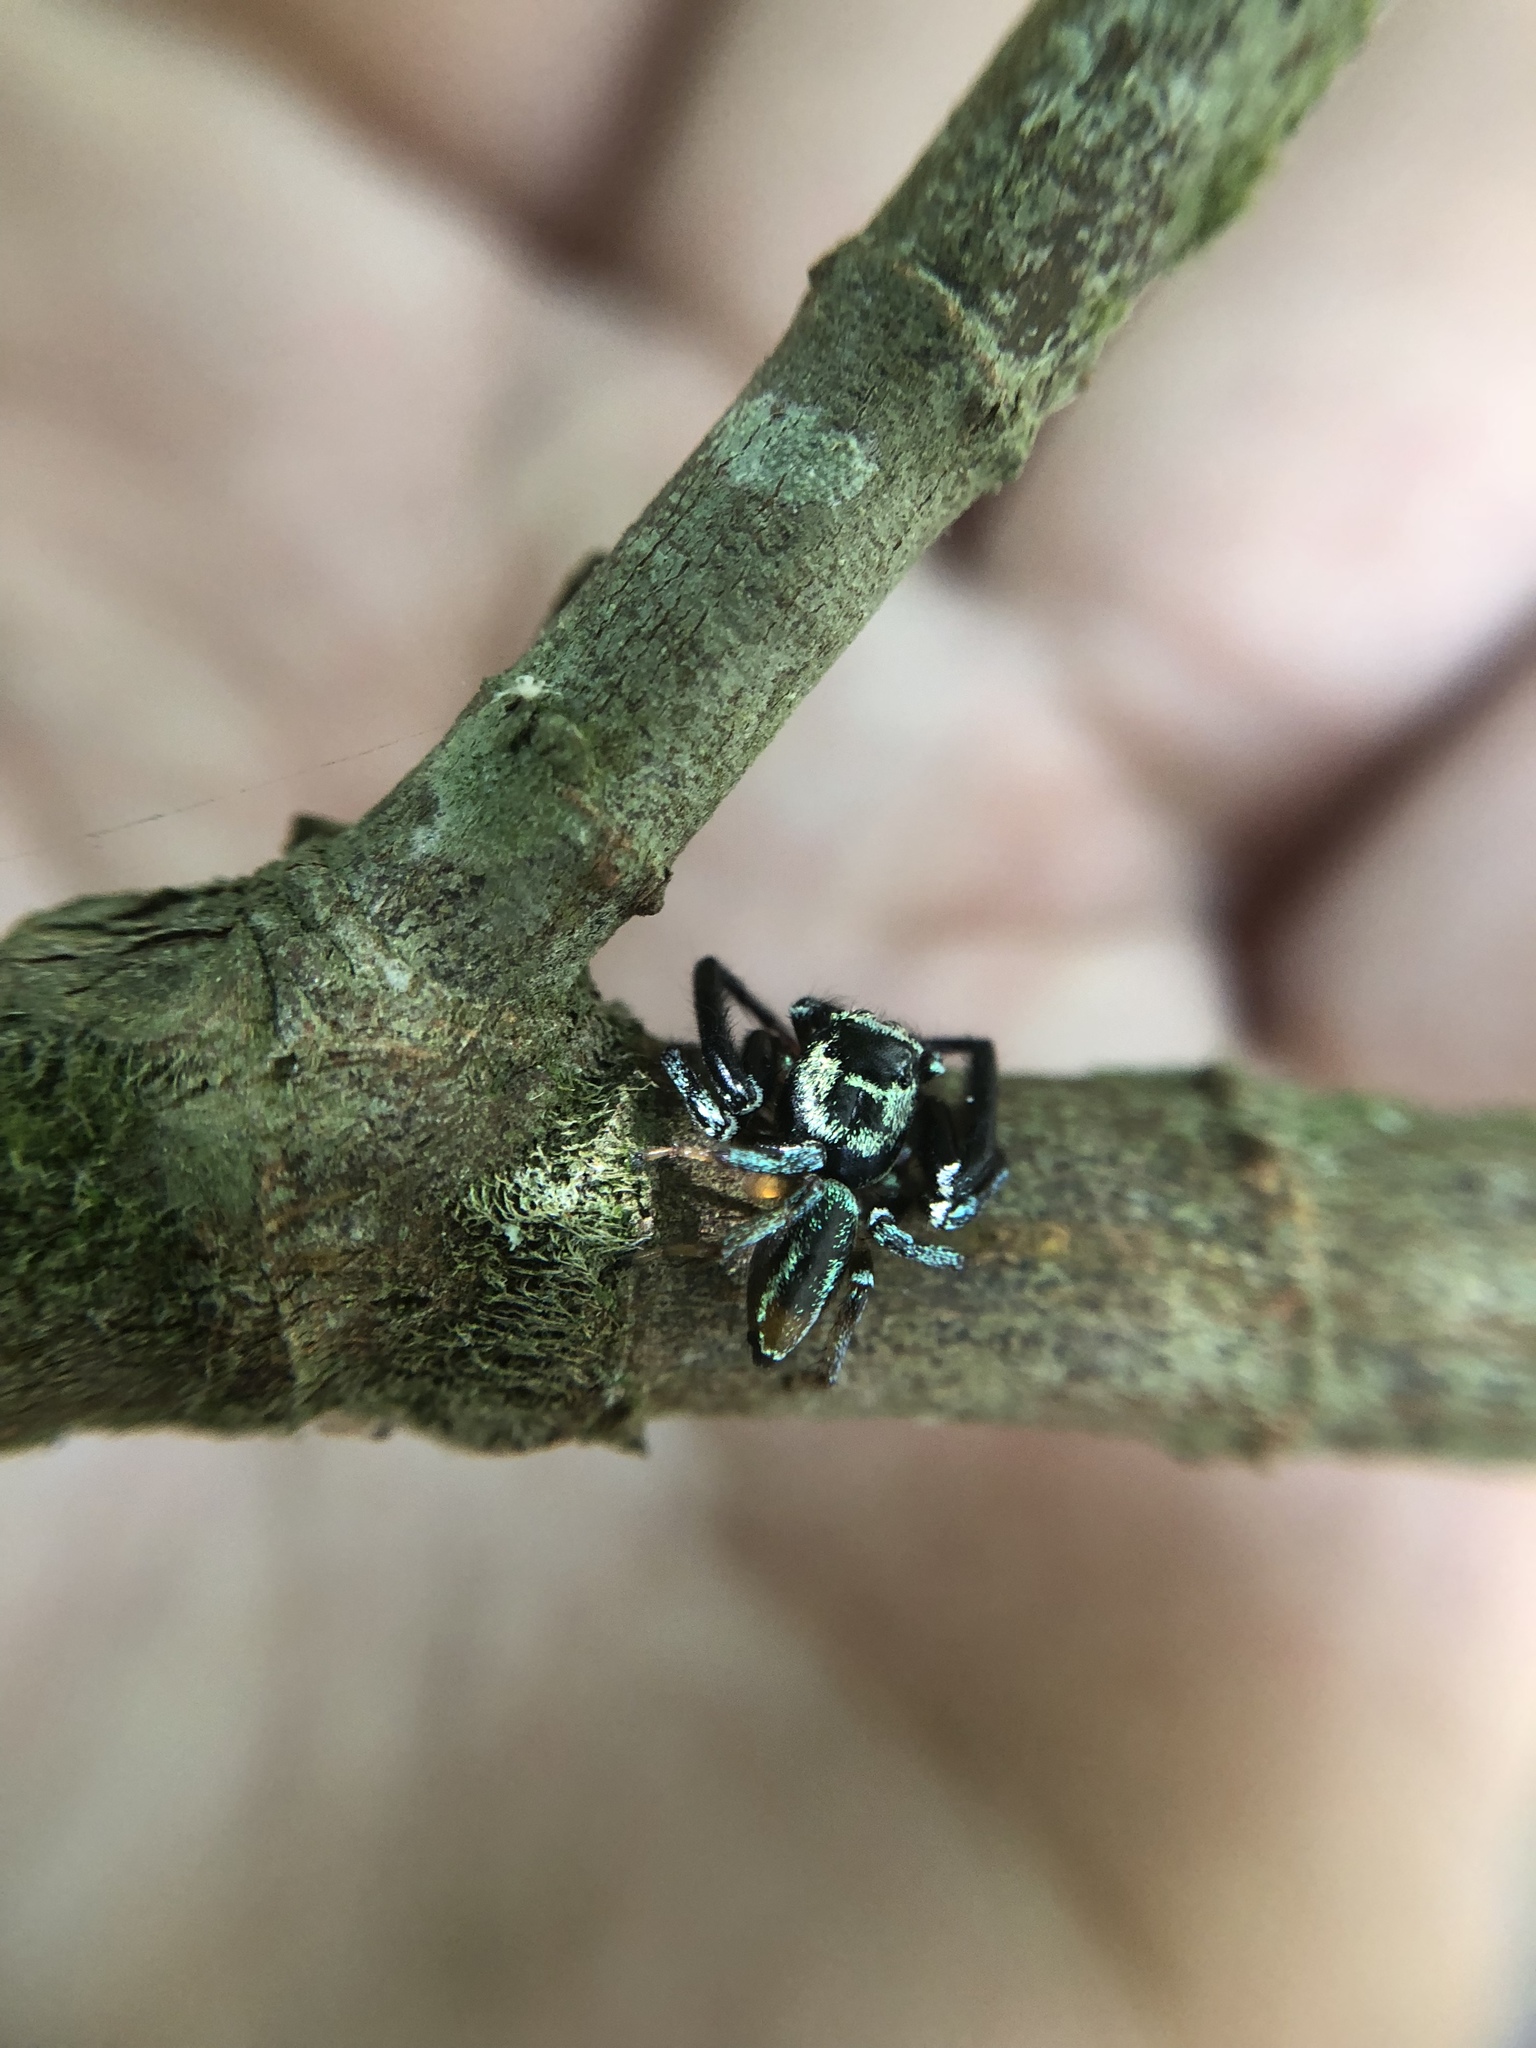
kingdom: Animalia
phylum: Arthropoda
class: Arachnida
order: Araneae
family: Salticidae
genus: Thiania
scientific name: Thiania suboppressa
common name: Jumping spider
